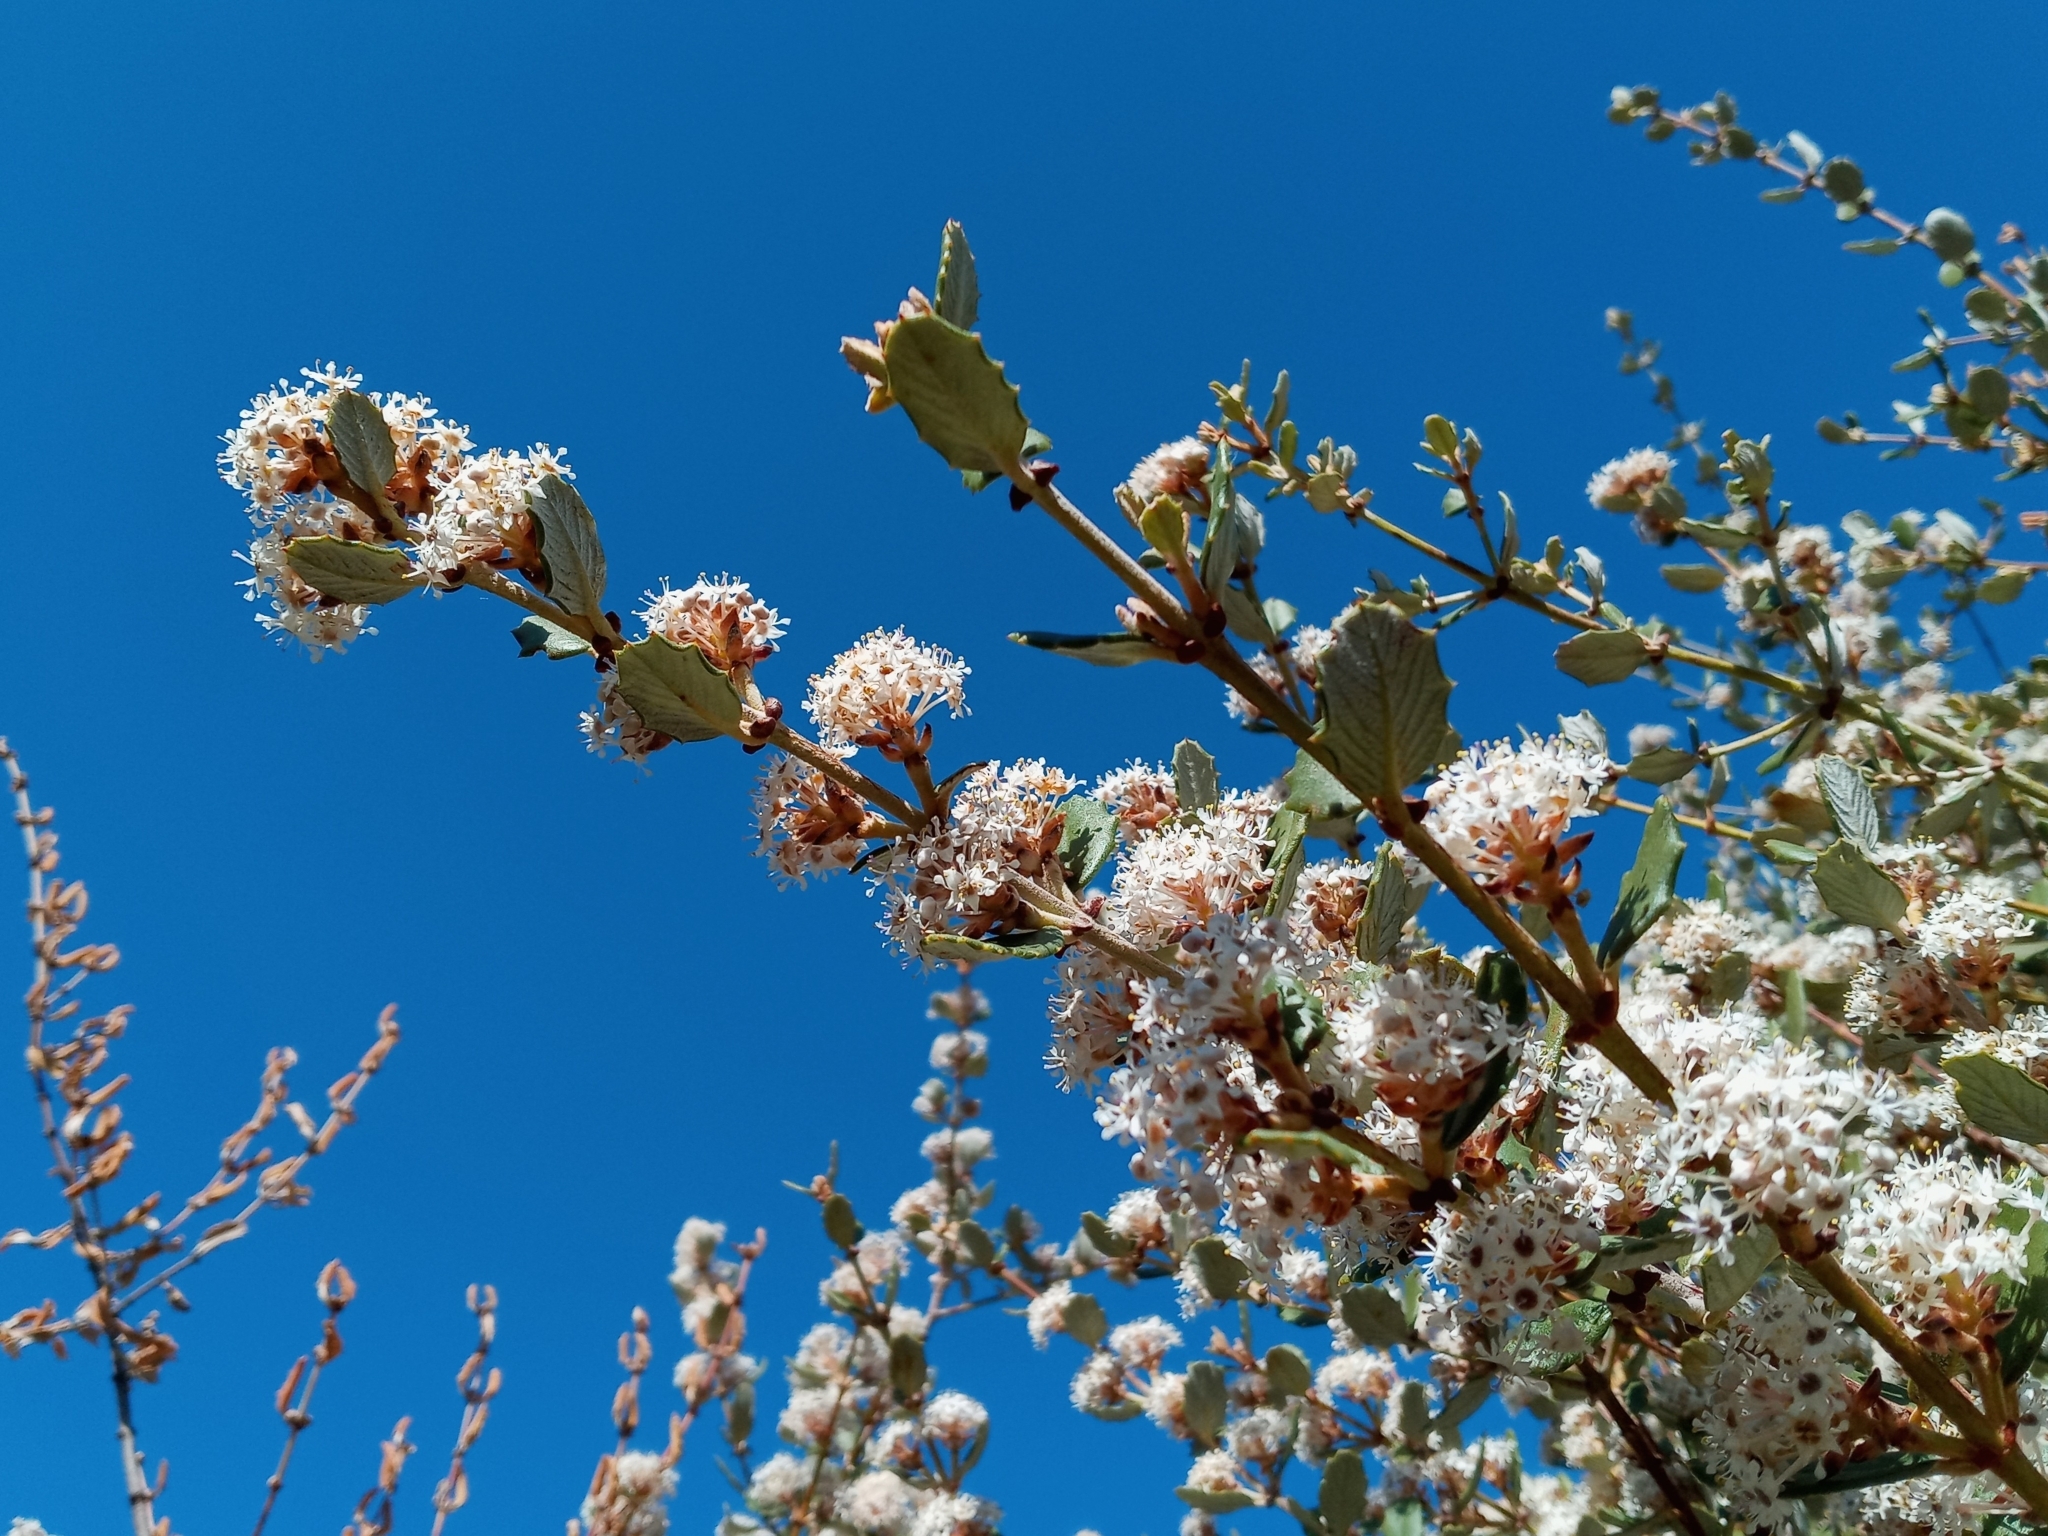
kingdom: Plantae
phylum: Tracheophyta
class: Magnoliopsida
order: Rosales
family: Rhamnaceae
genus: Ceanothus
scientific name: Ceanothus crassifolius
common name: Hoaryleaf ceanothus
